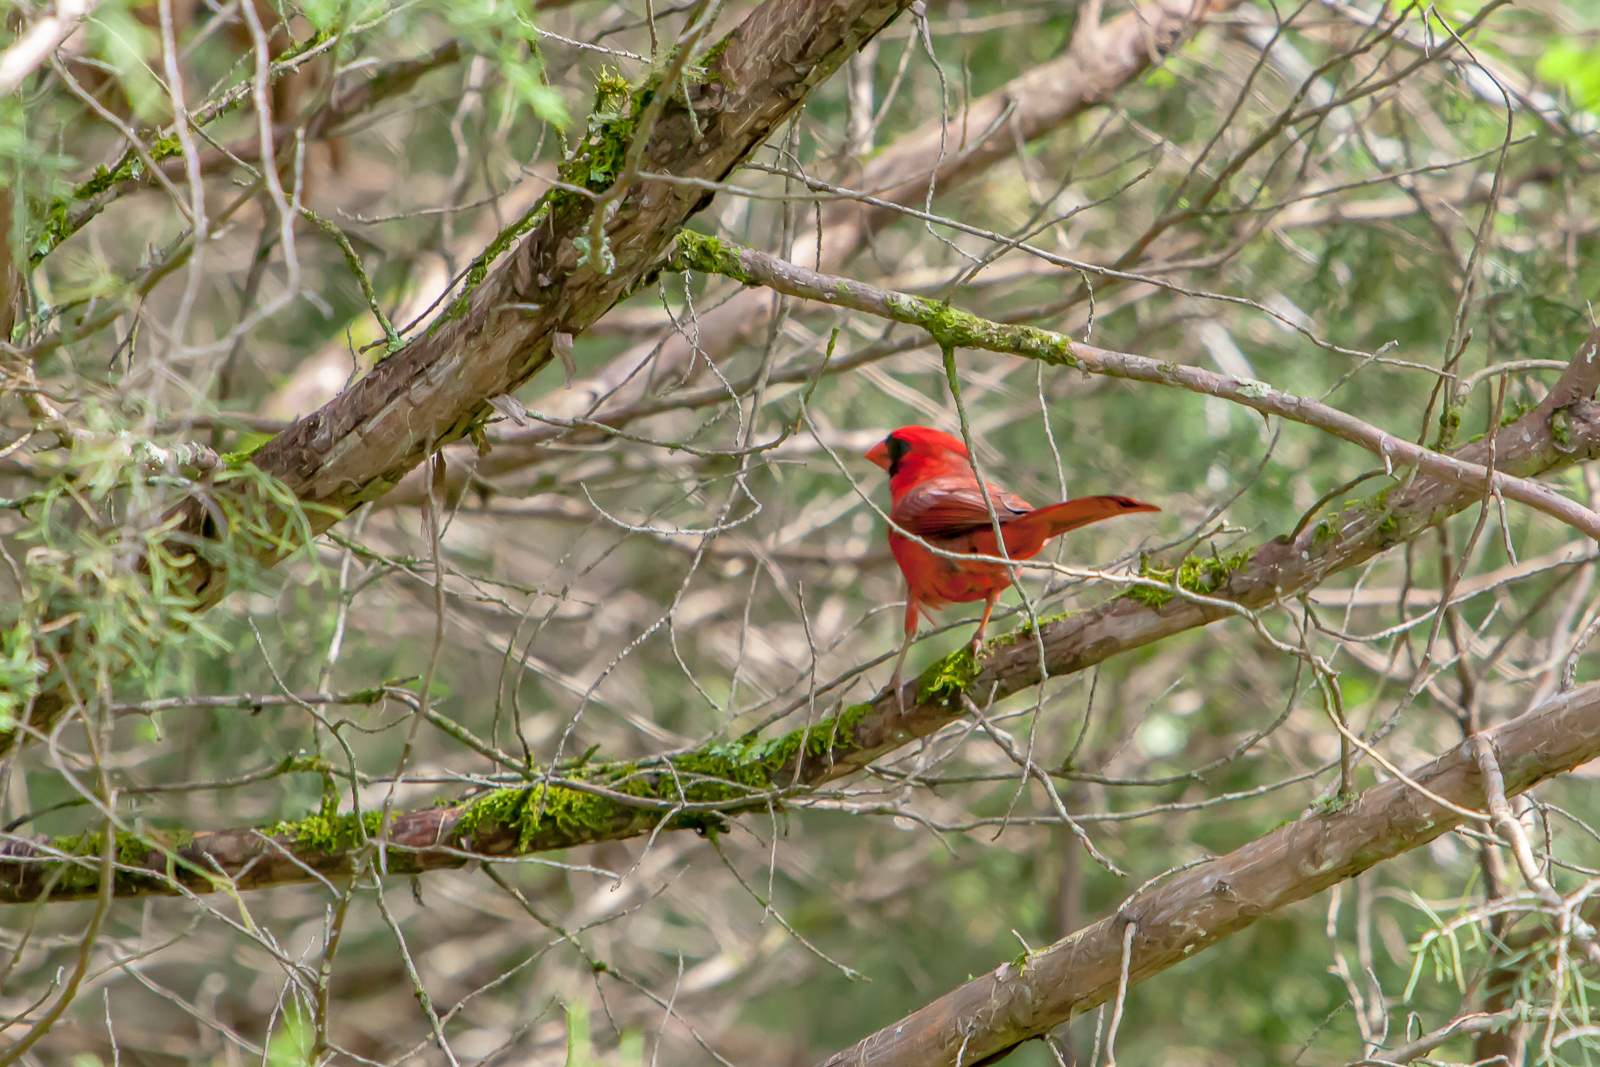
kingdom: Animalia
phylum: Chordata
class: Aves
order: Passeriformes
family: Cardinalidae
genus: Cardinalis
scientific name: Cardinalis cardinalis
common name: Northern cardinal
